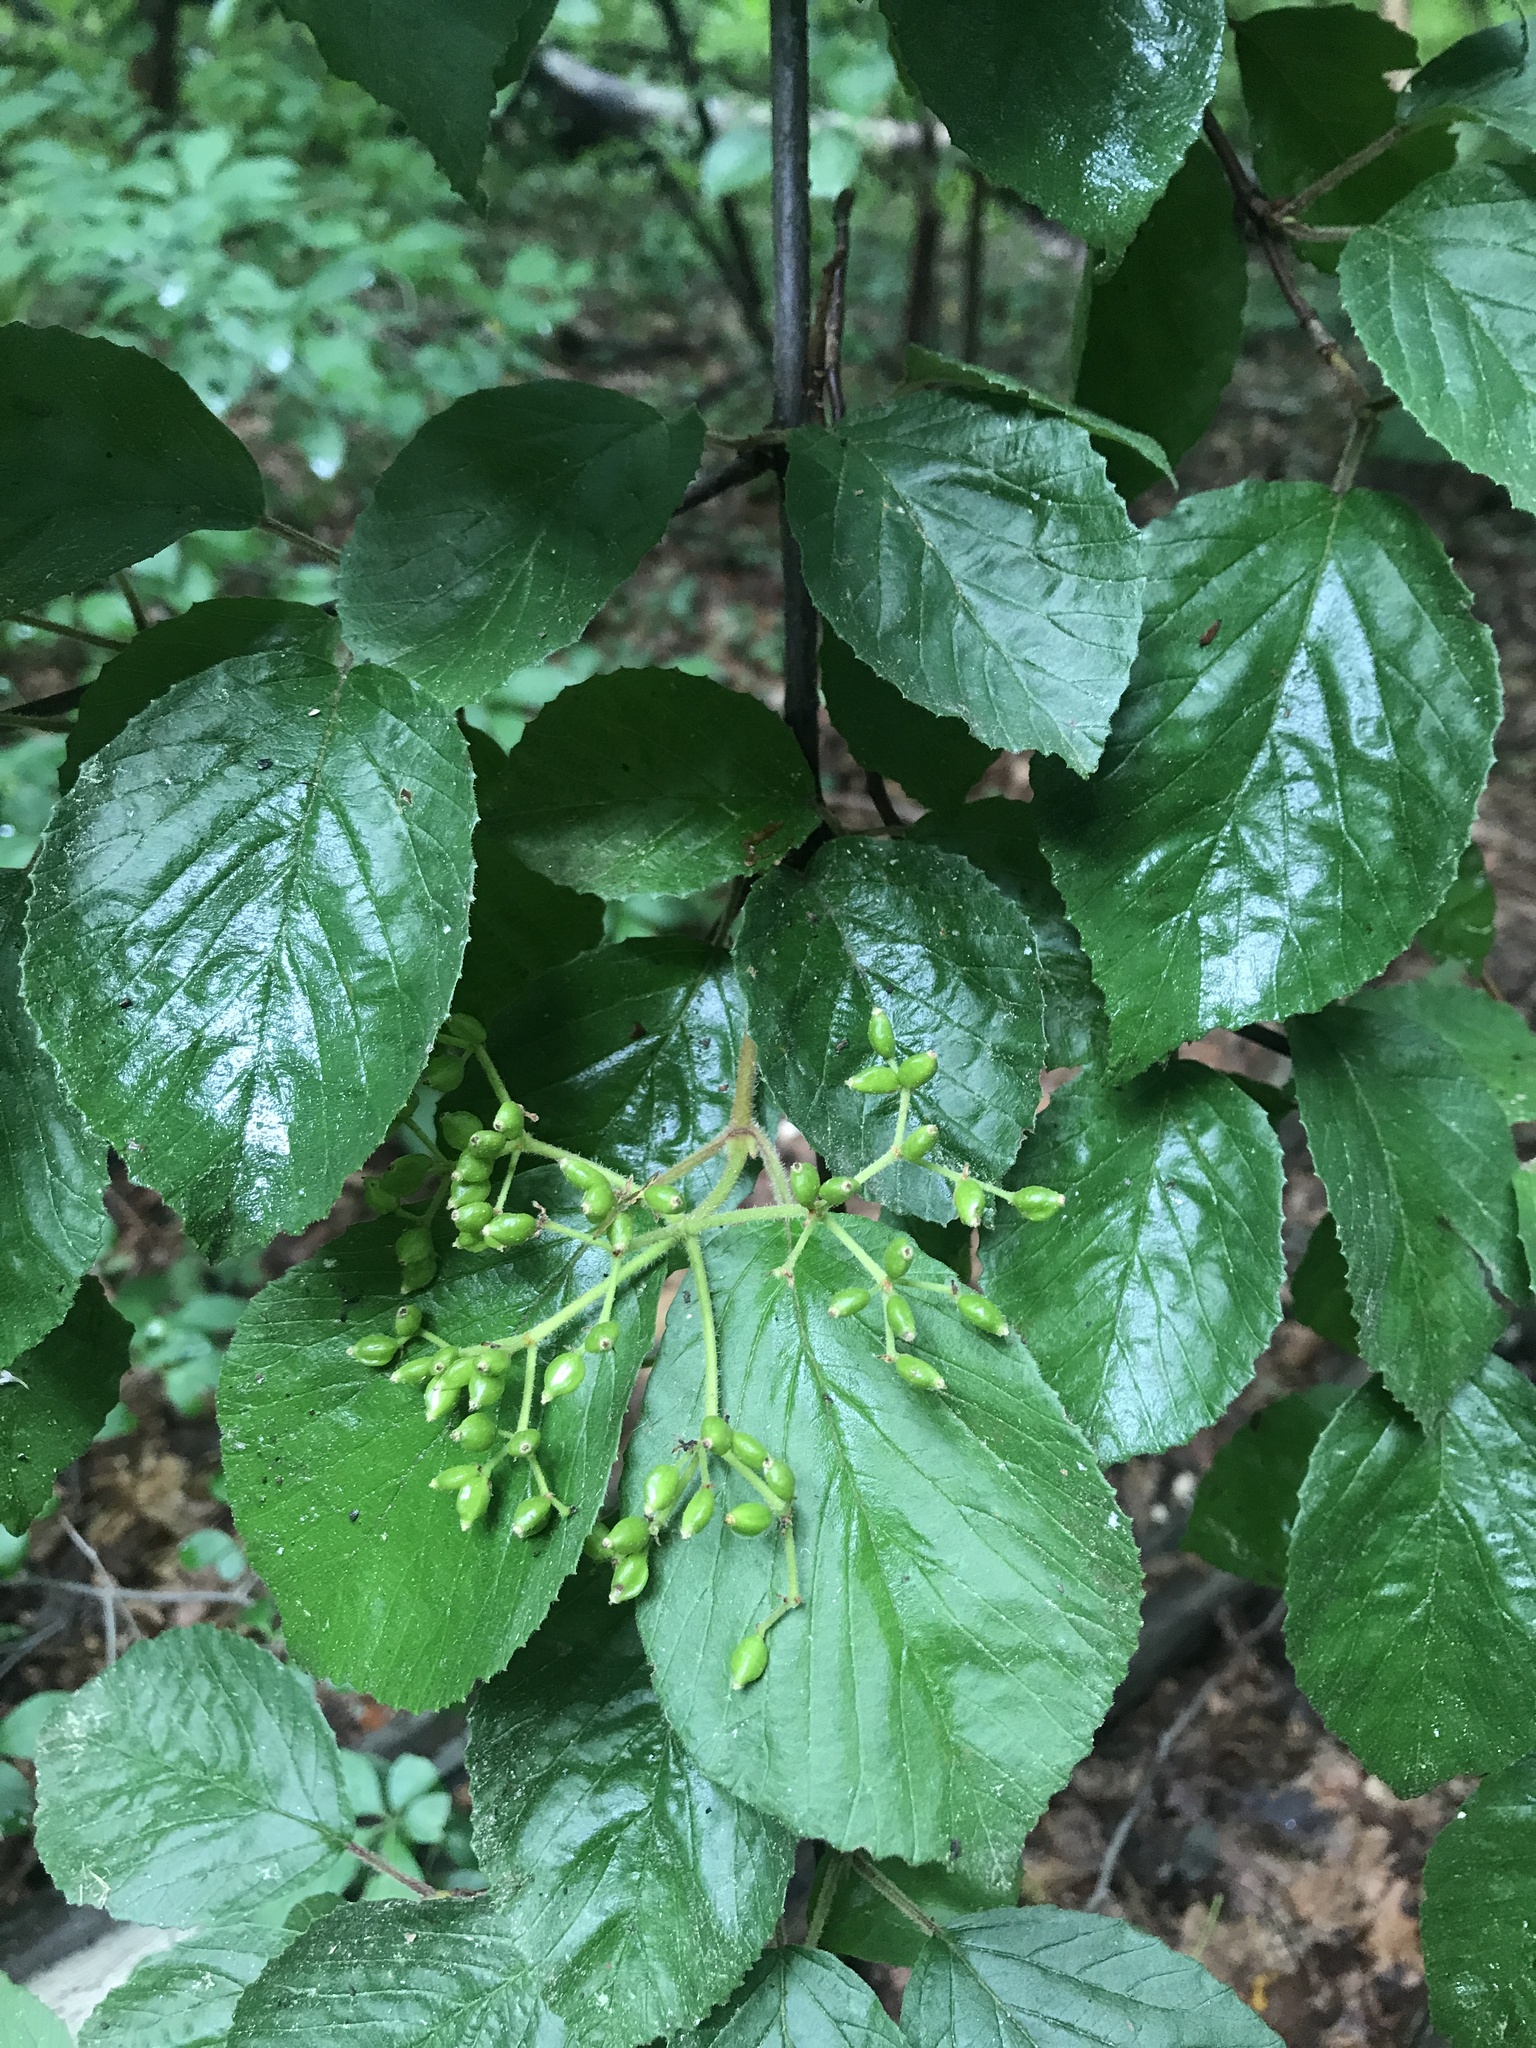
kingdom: Plantae
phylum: Tracheophyta
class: Magnoliopsida
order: Dipsacales
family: Viburnaceae
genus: Viburnum
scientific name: Viburnum dilatatum
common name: Linden arrowwood
